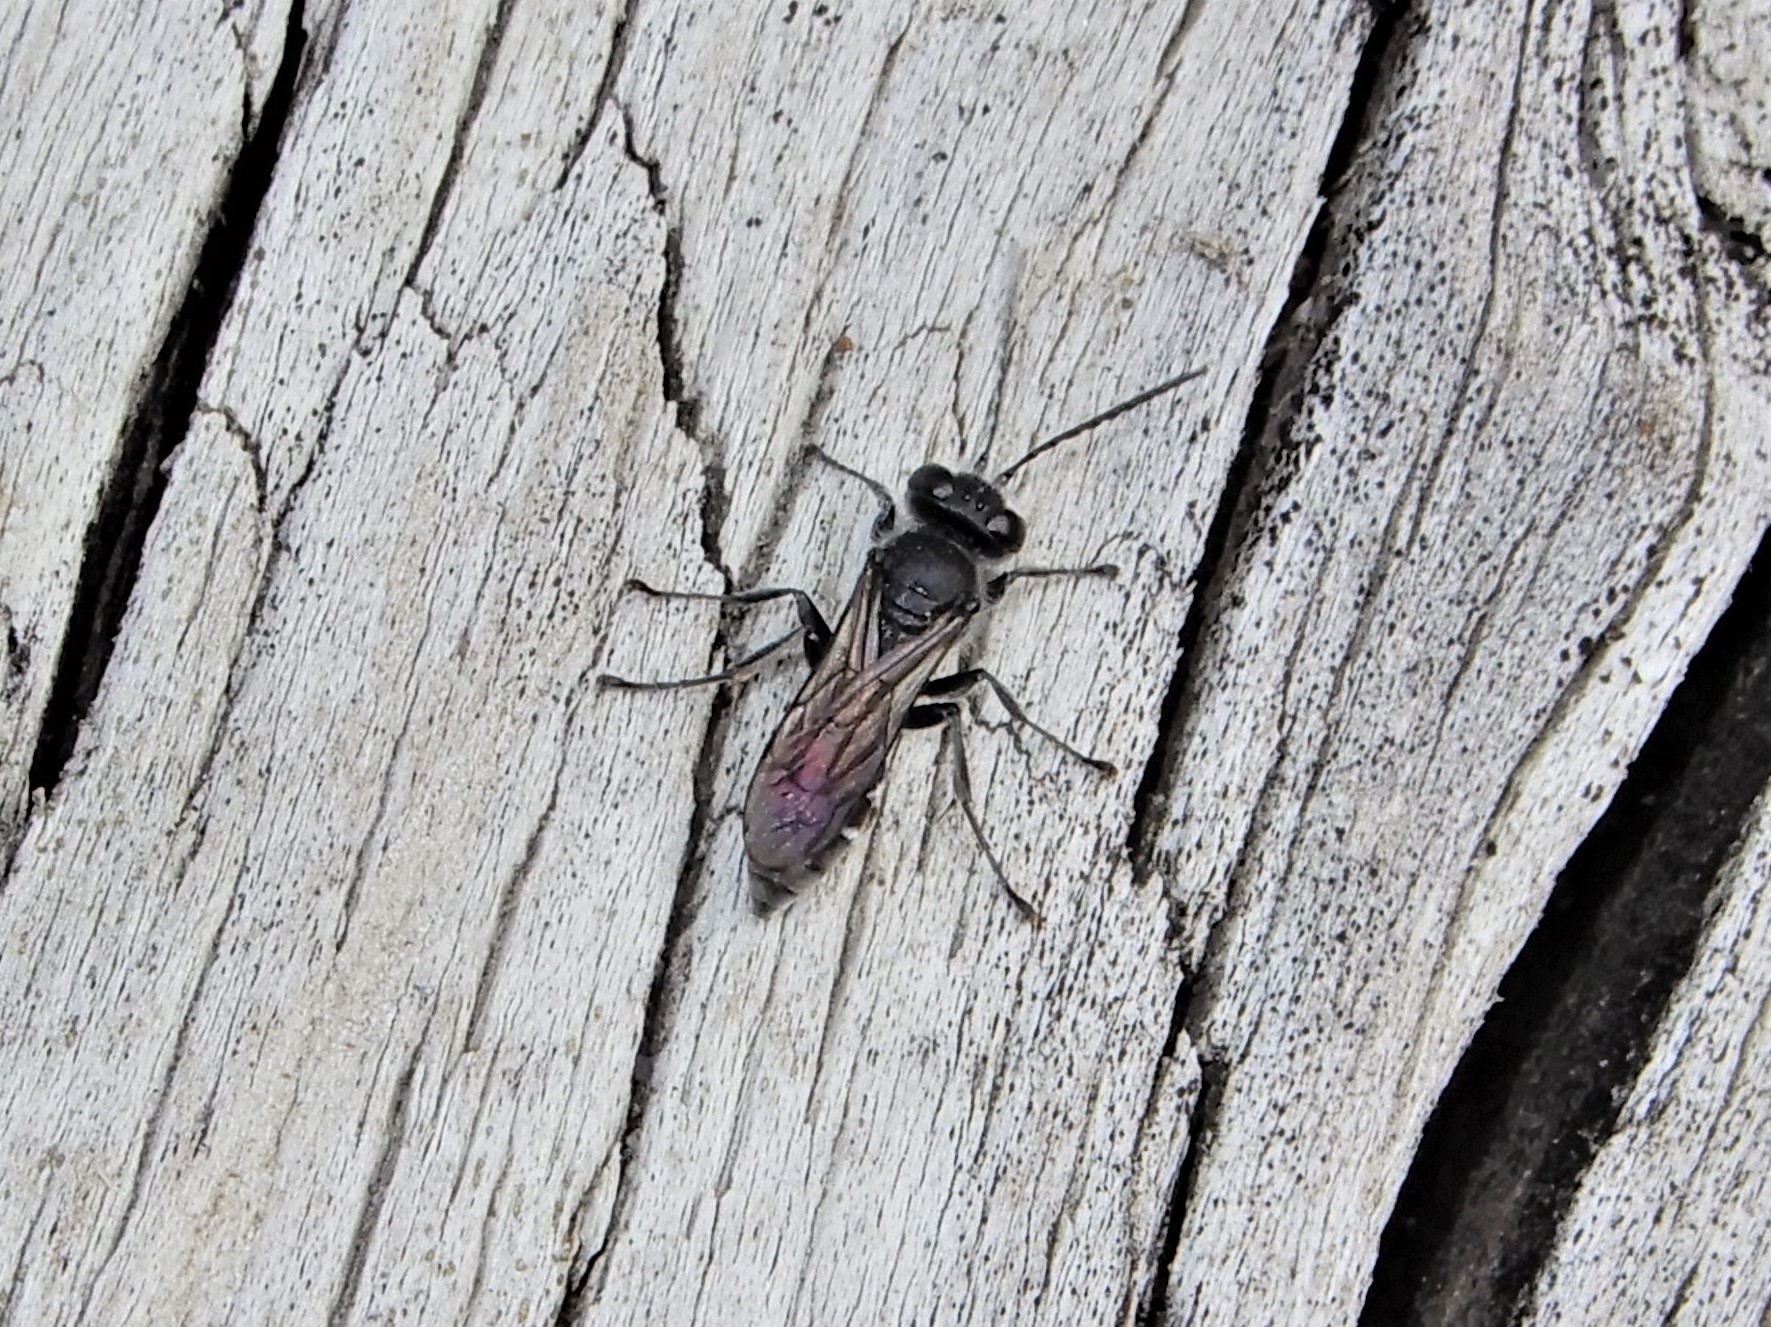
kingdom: Animalia
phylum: Arthropoda
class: Insecta
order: Hymenoptera
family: Crabronidae
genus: Pison
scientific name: Pison spinolae
